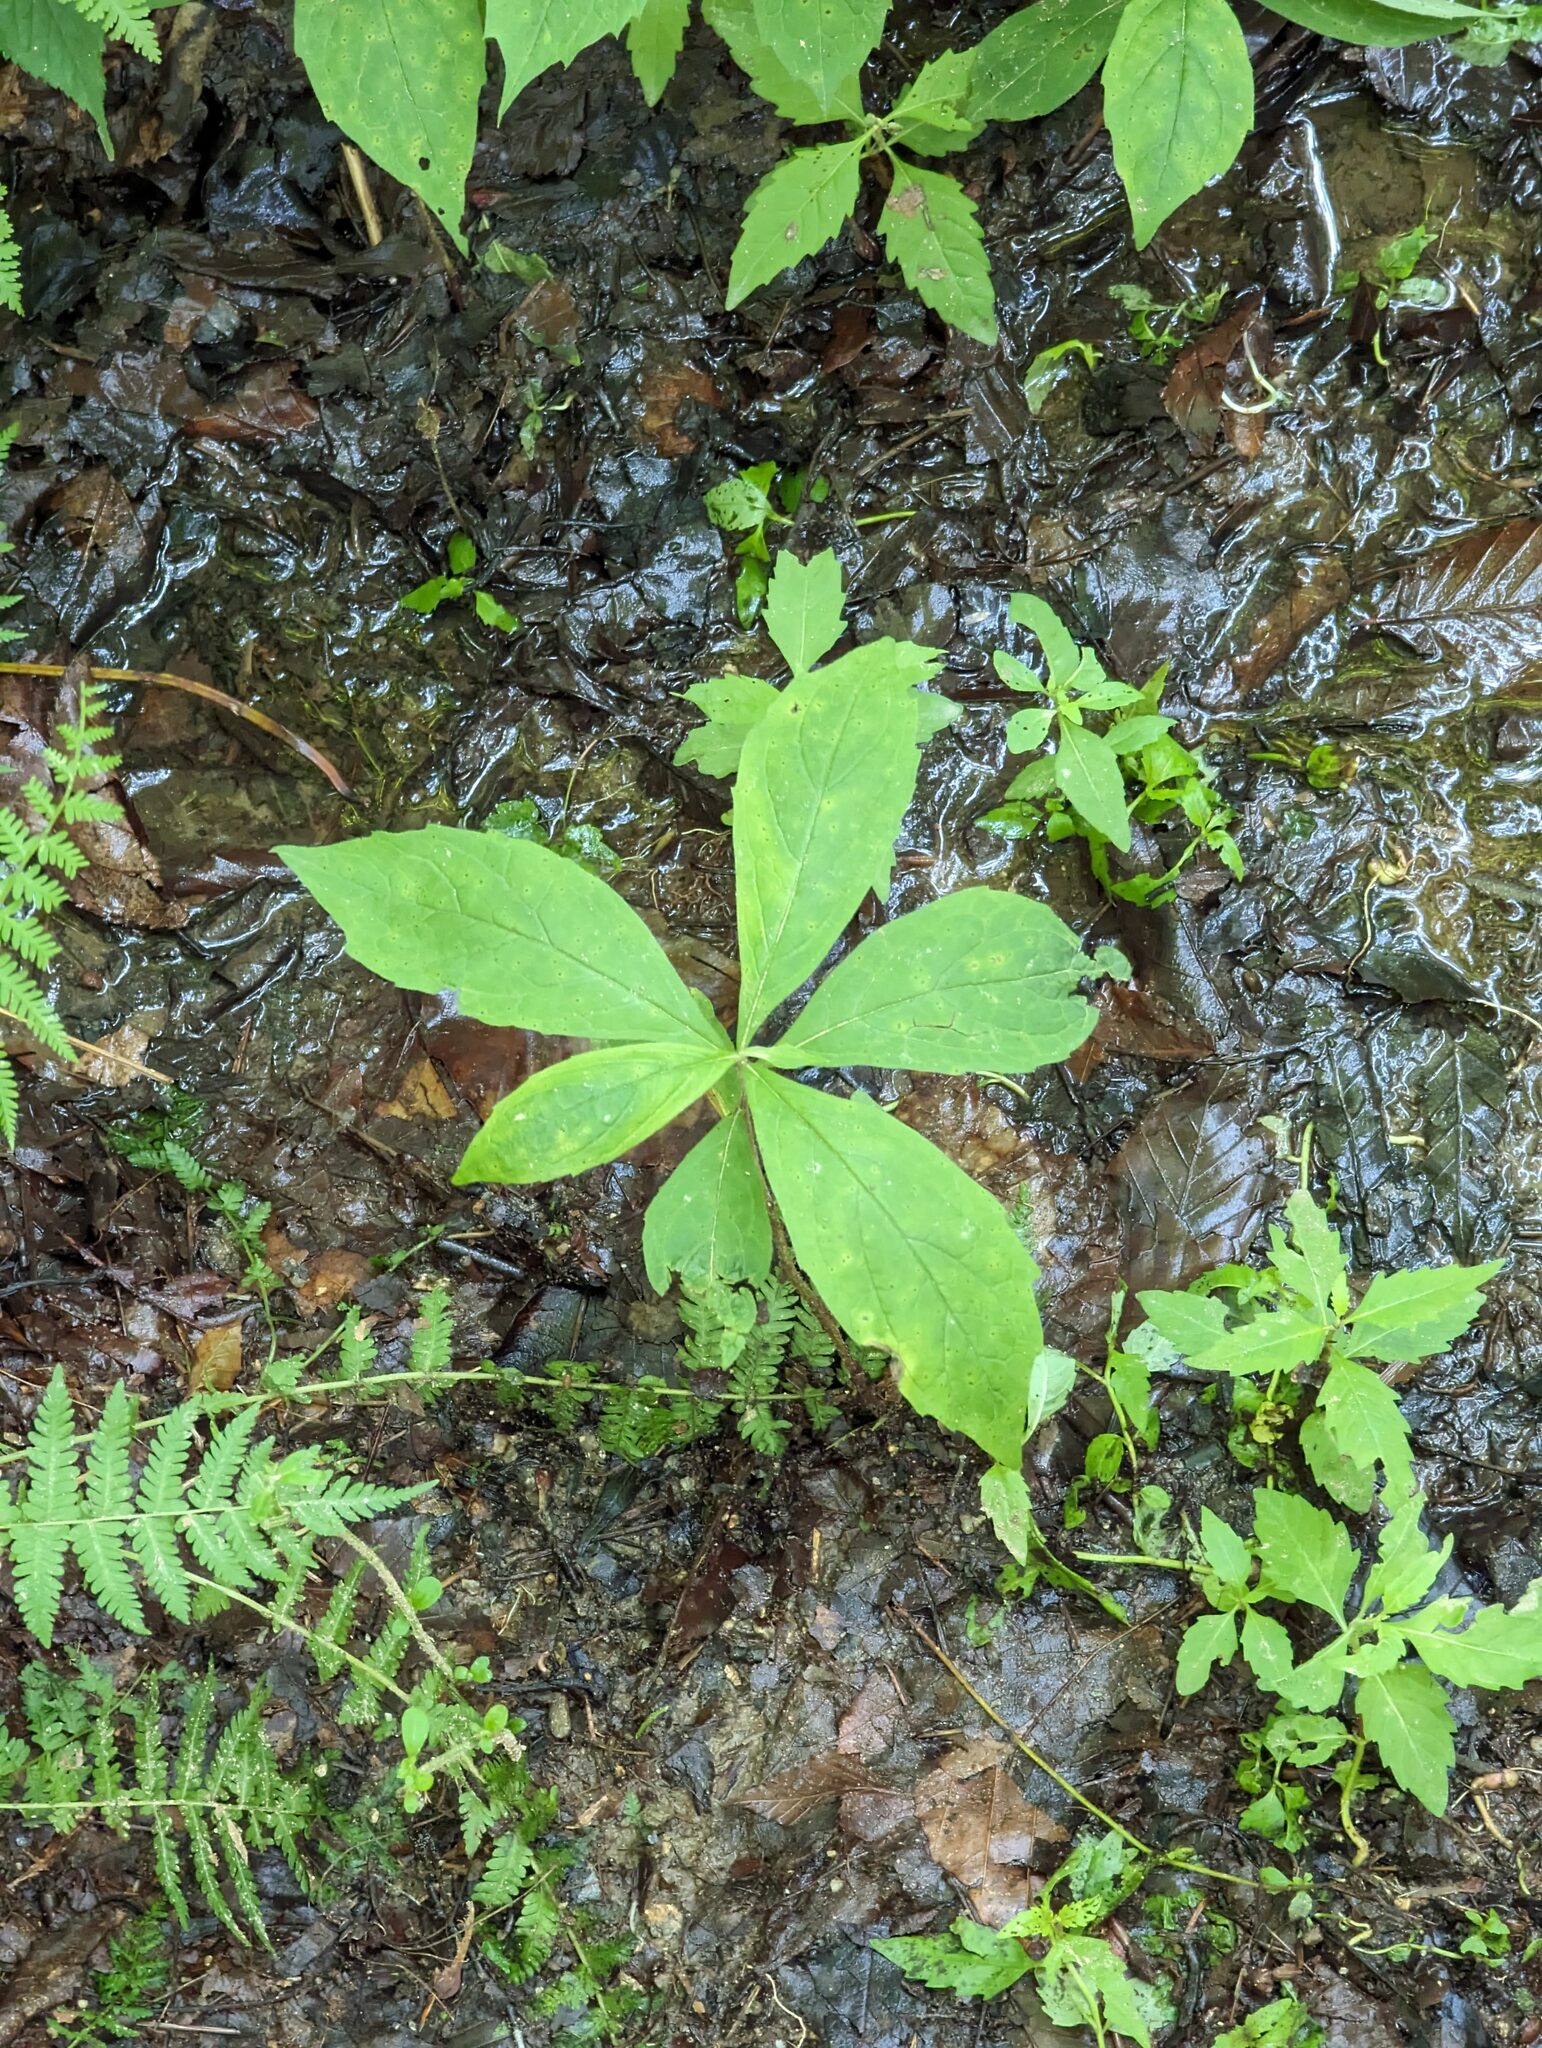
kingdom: Plantae
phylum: Tracheophyta
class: Magnoliopsida
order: Asterales
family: Asteraceae
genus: Oclemena
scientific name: Oclemena acuminata
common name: Mountain aster
